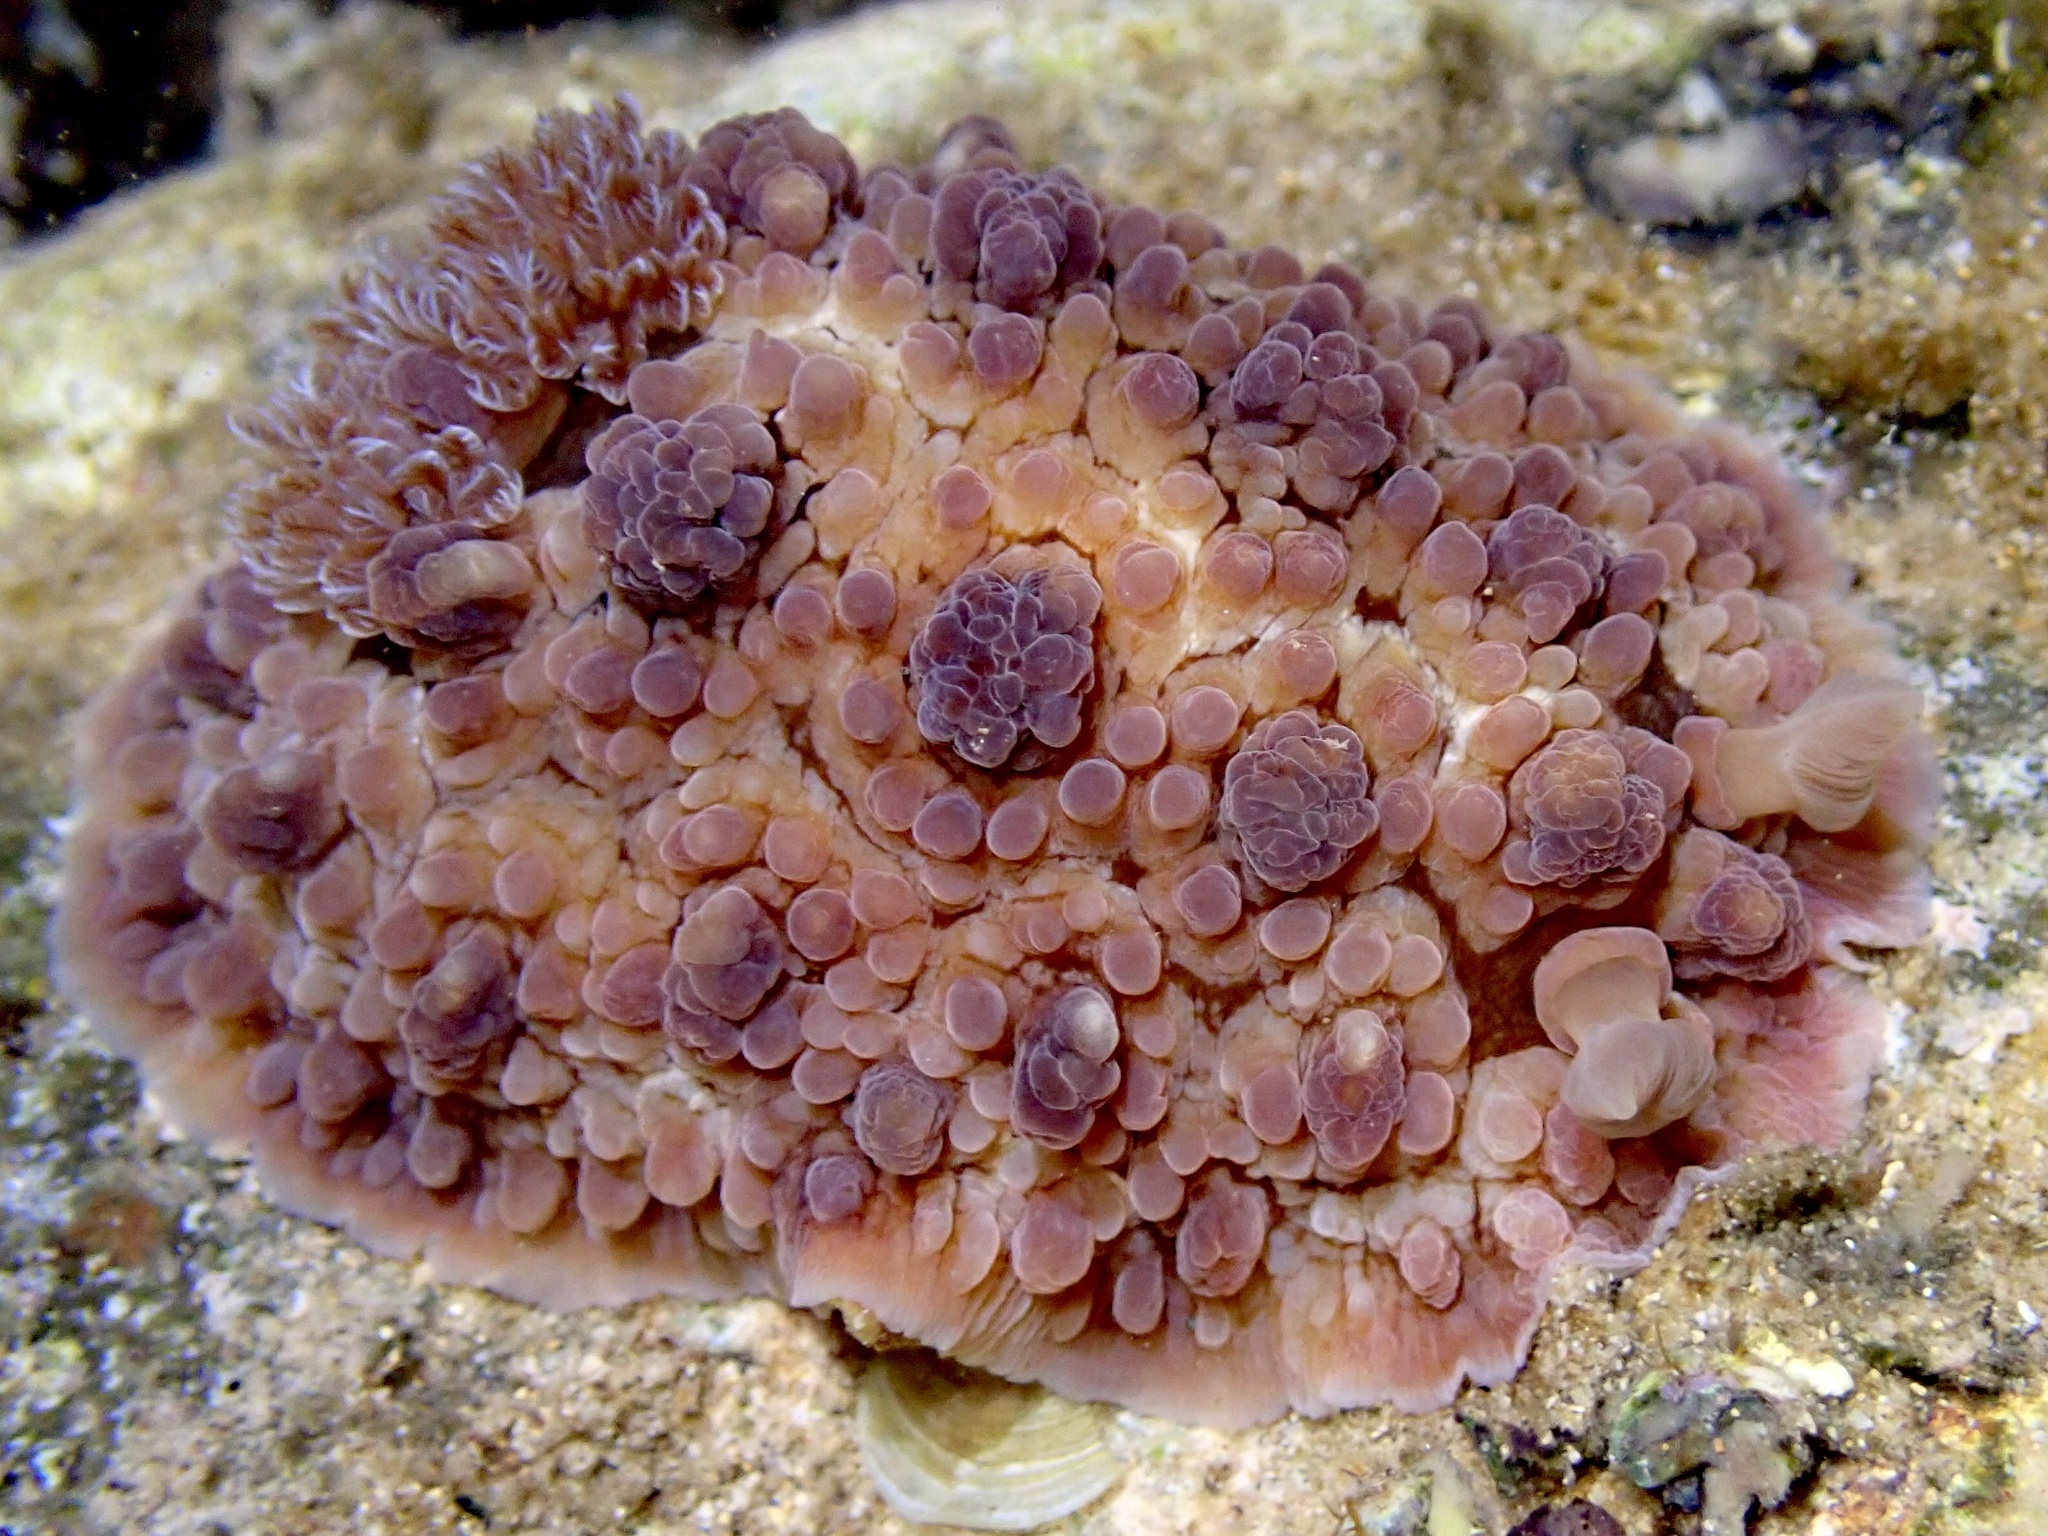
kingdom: Animalia
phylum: Mollusca
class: Gastropoda
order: Nudibranchia
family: Dendrodorididae
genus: Dendrodoris
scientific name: Dendrodoris carbunculosa
